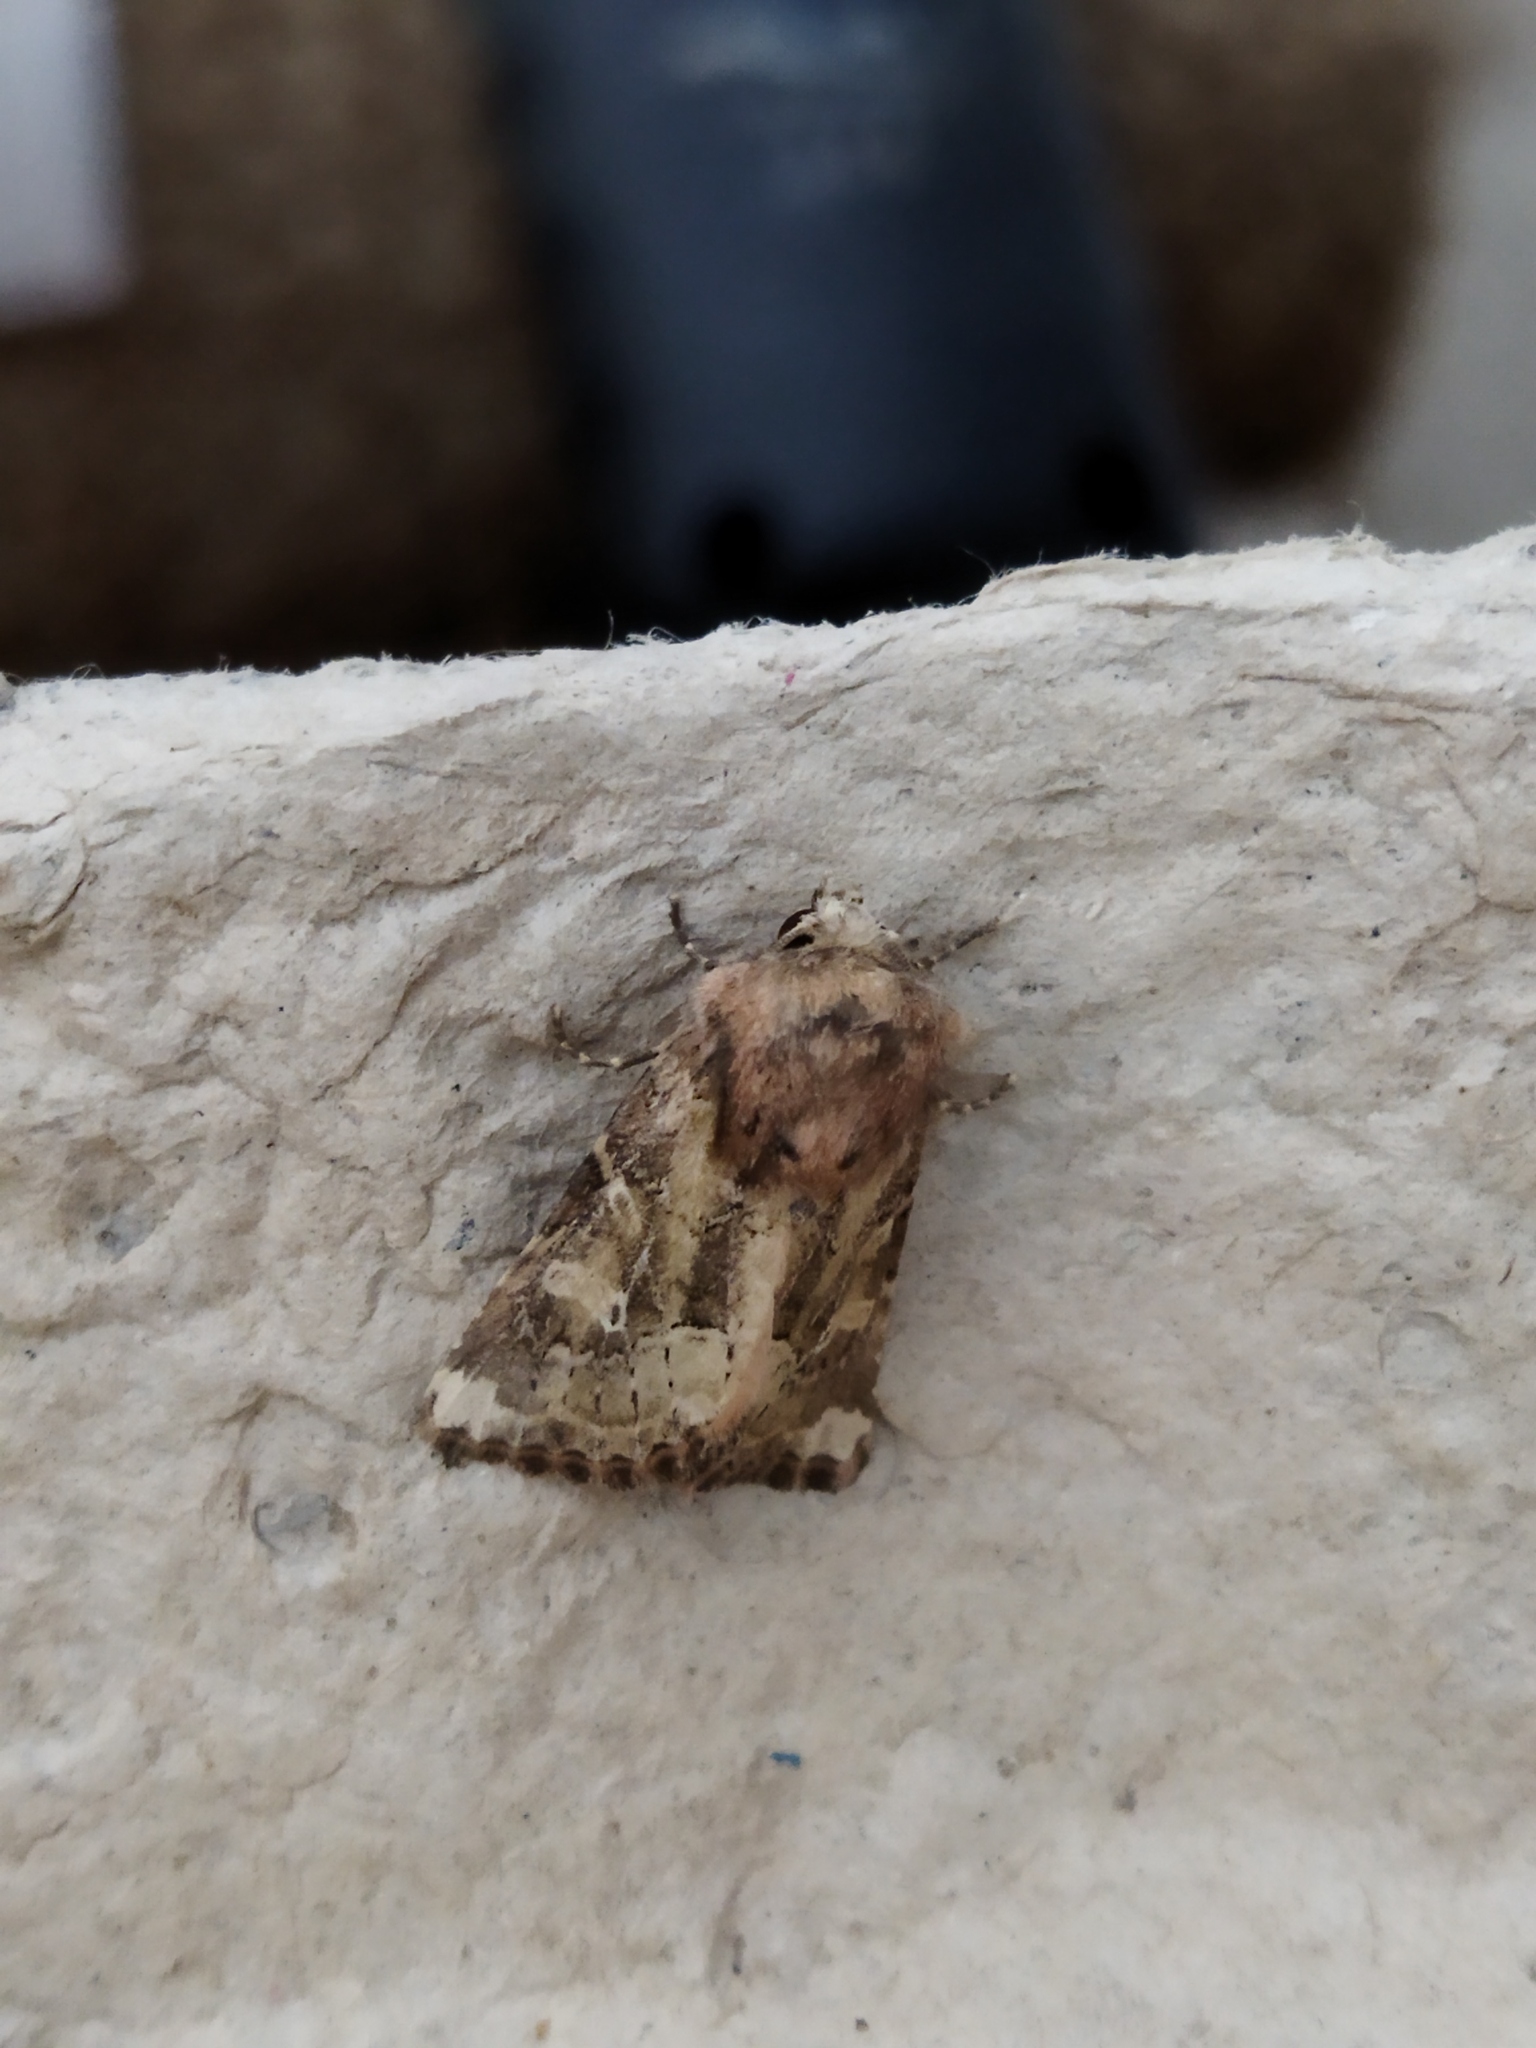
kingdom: Animalia
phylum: Arthropoda
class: Insecta
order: Lepidoptera
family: Noctuidae
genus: Luperina
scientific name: Luperina dumerilii
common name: Dumeril's rustic
